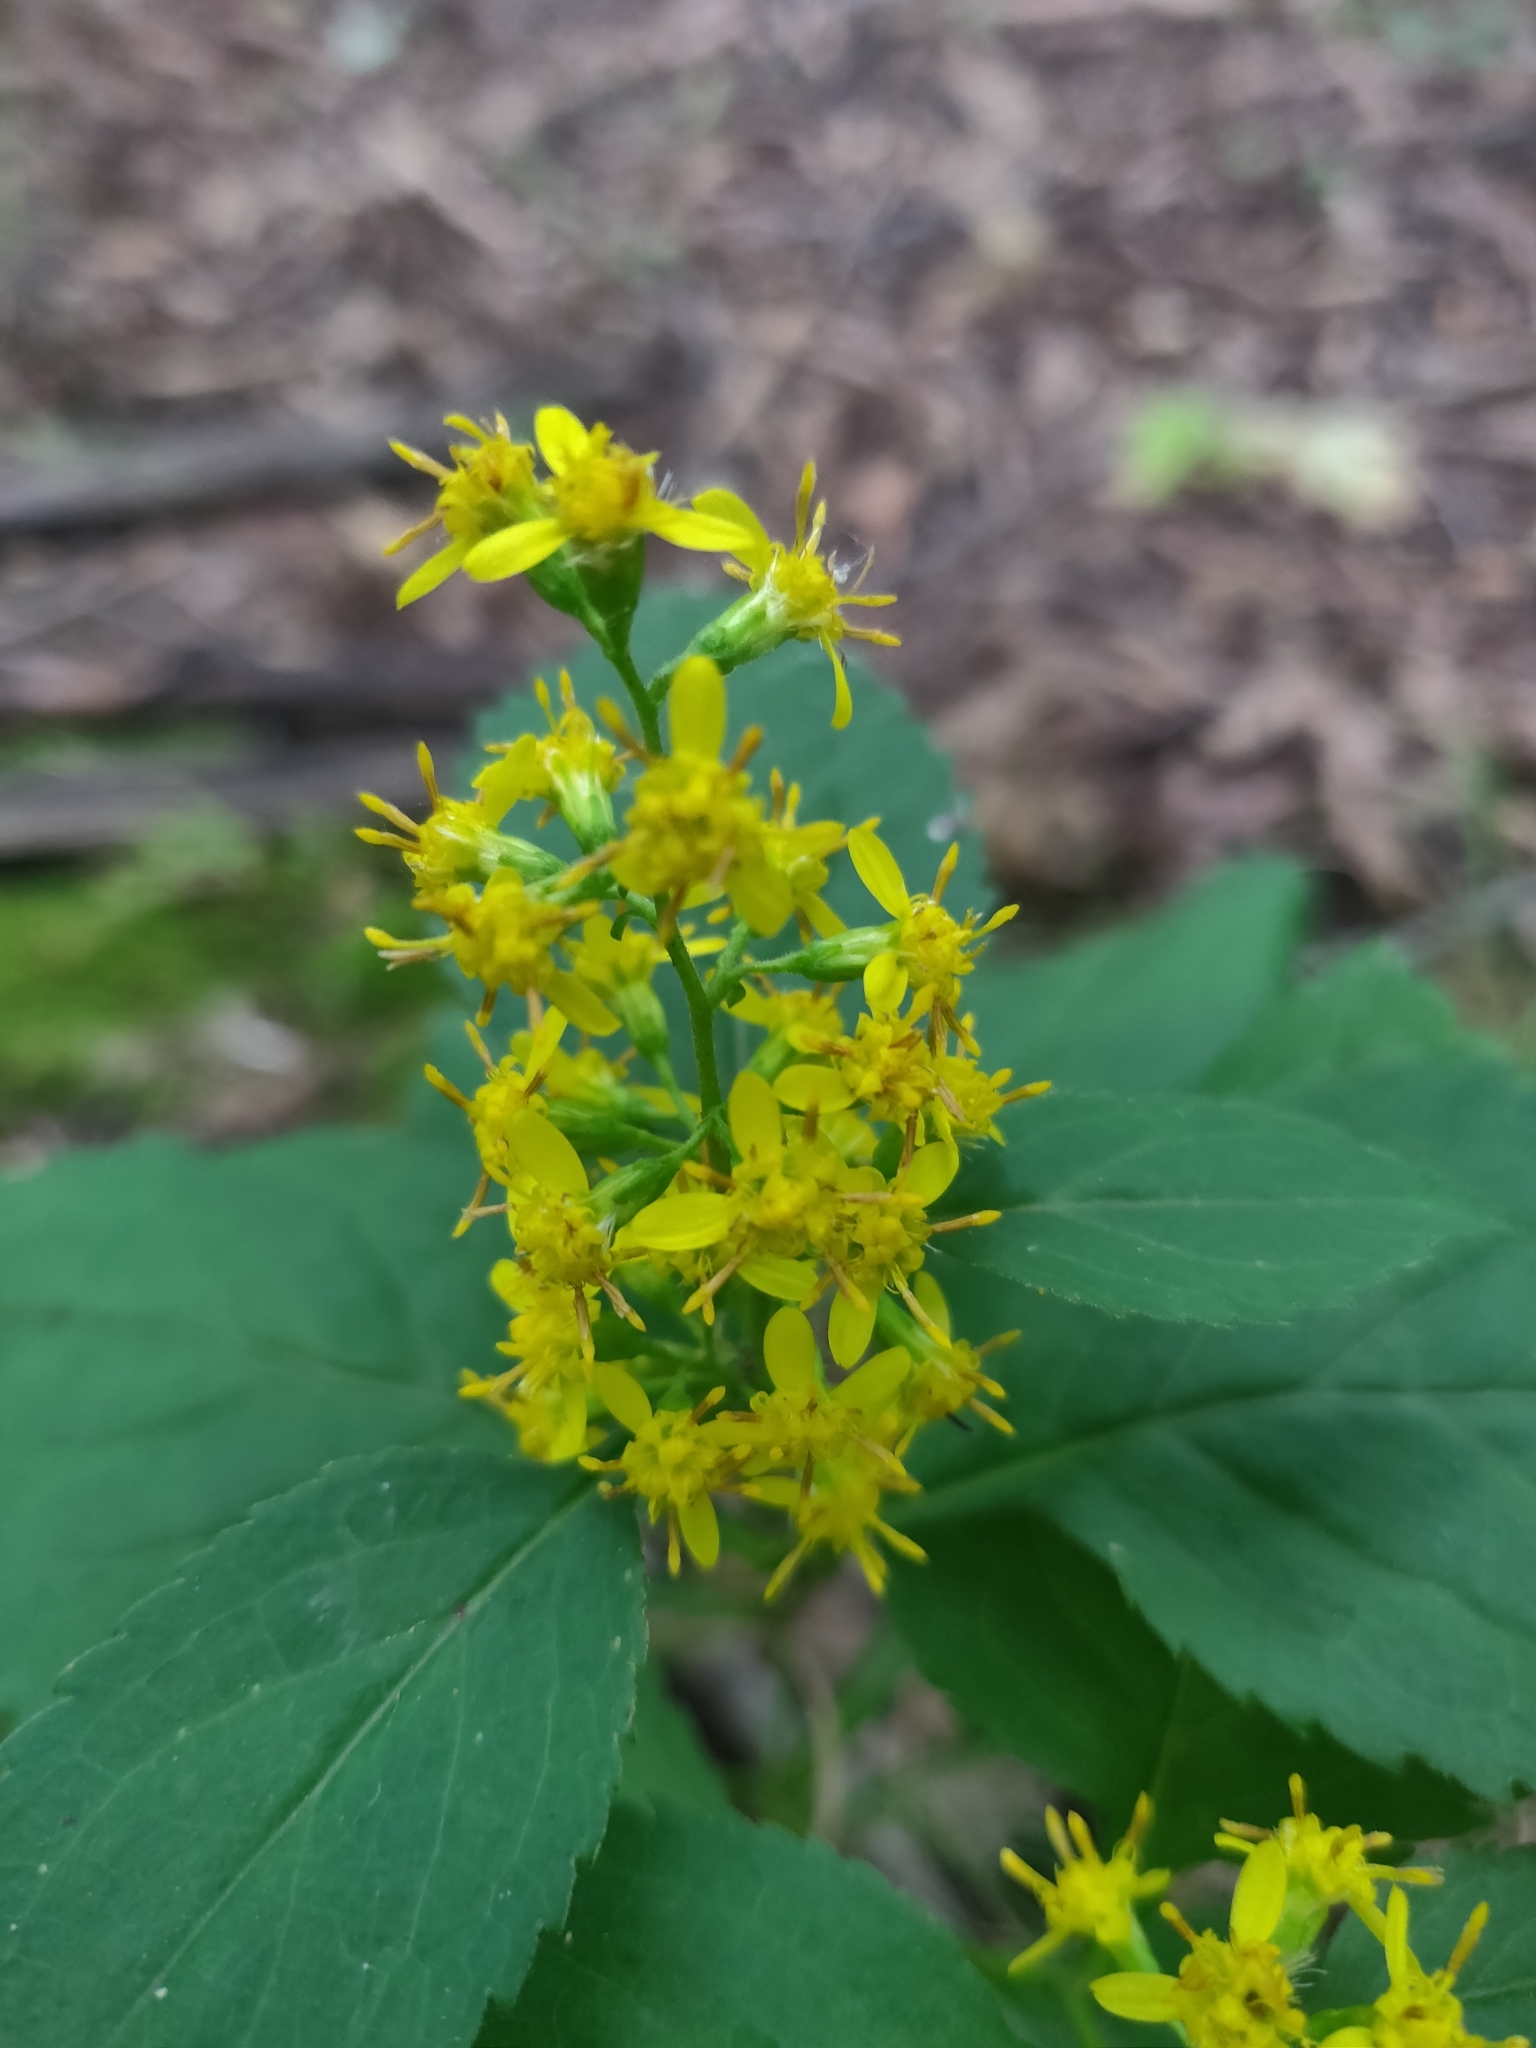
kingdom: Plantae
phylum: Tracheophyta
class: Magnoliopsida
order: Asterales
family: Asteraceae
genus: Solidago
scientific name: Solidago flexicaulis
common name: Zig-zag goldenrod
